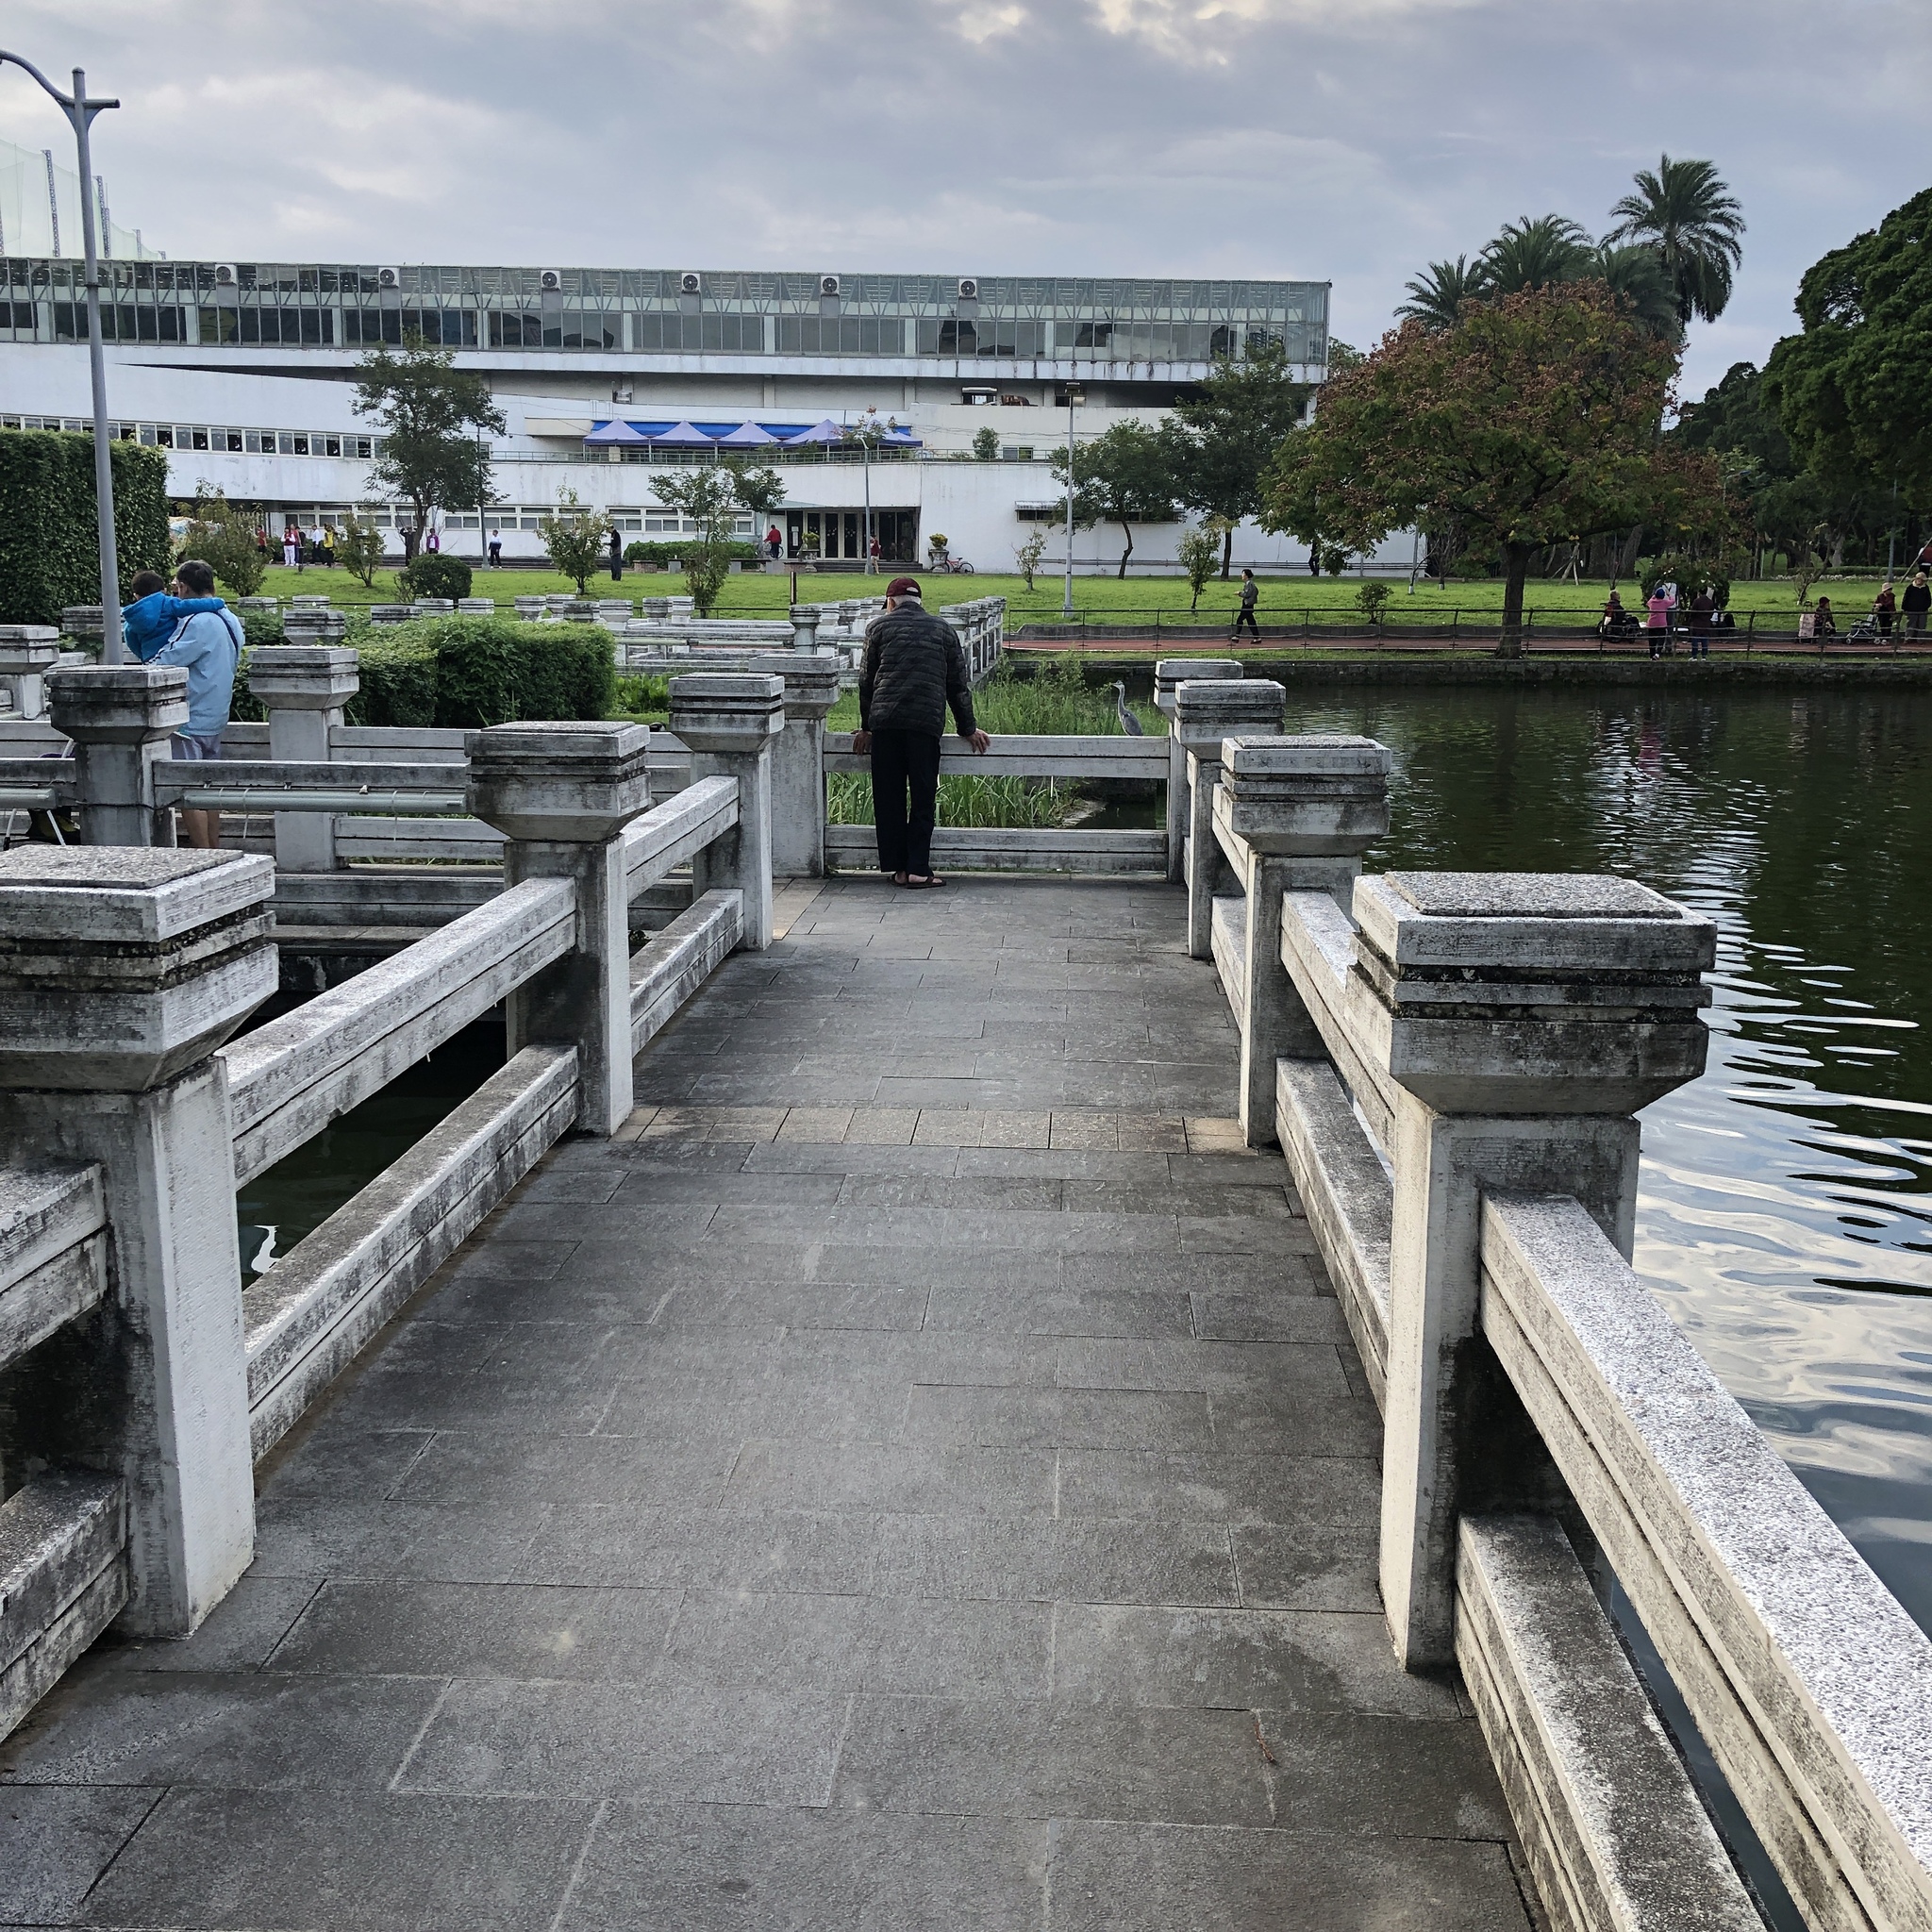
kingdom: Animalia
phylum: Chordata
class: Aves
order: Pelecaniformes
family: Ardeidae
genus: Ardea
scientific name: Ardea cinerea
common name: Grey heron
